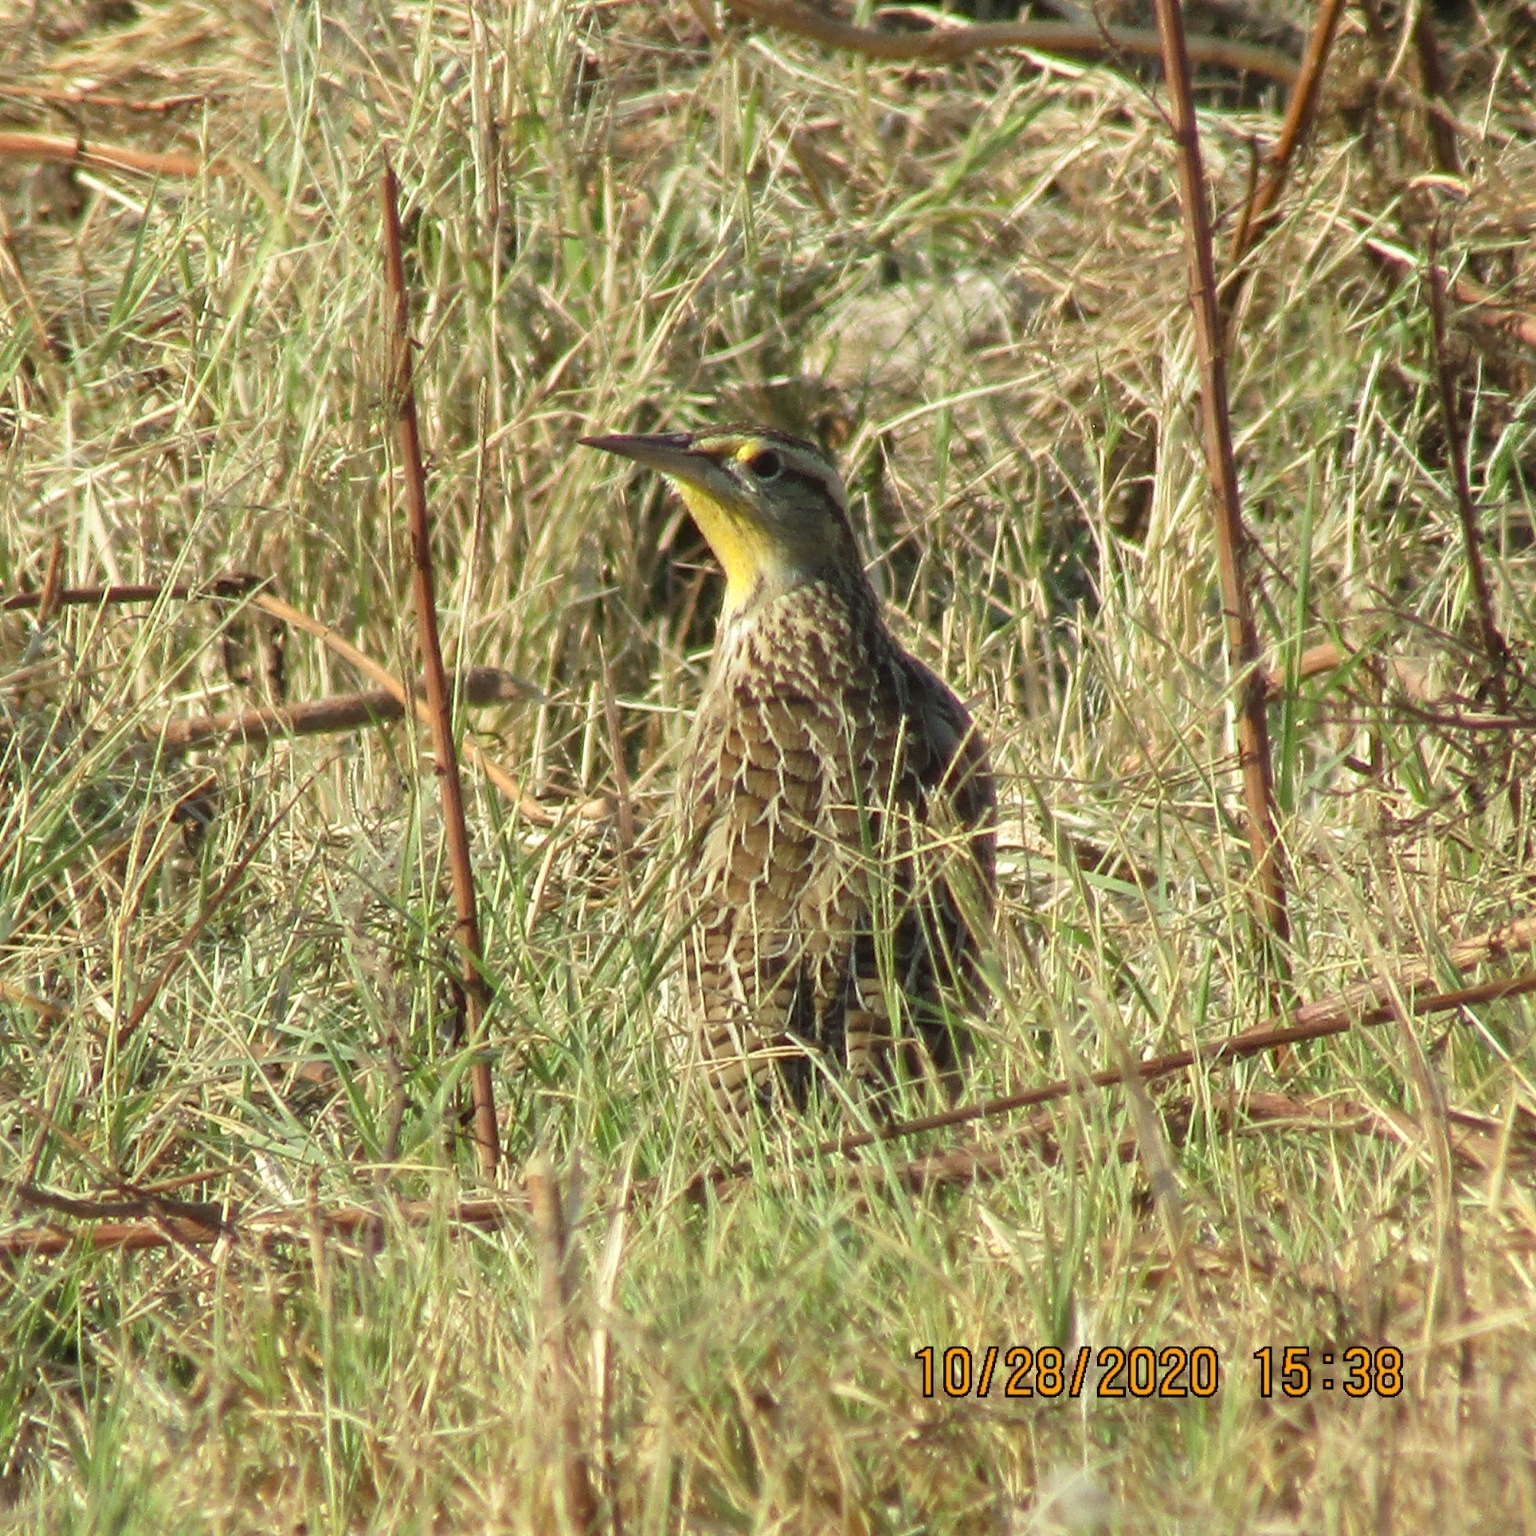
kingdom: Animalia
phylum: Chordata
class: Aves
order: Passeriformes
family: Icteridae
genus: Sturnella
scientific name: Sturnella neglecta
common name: Western meadowlark
